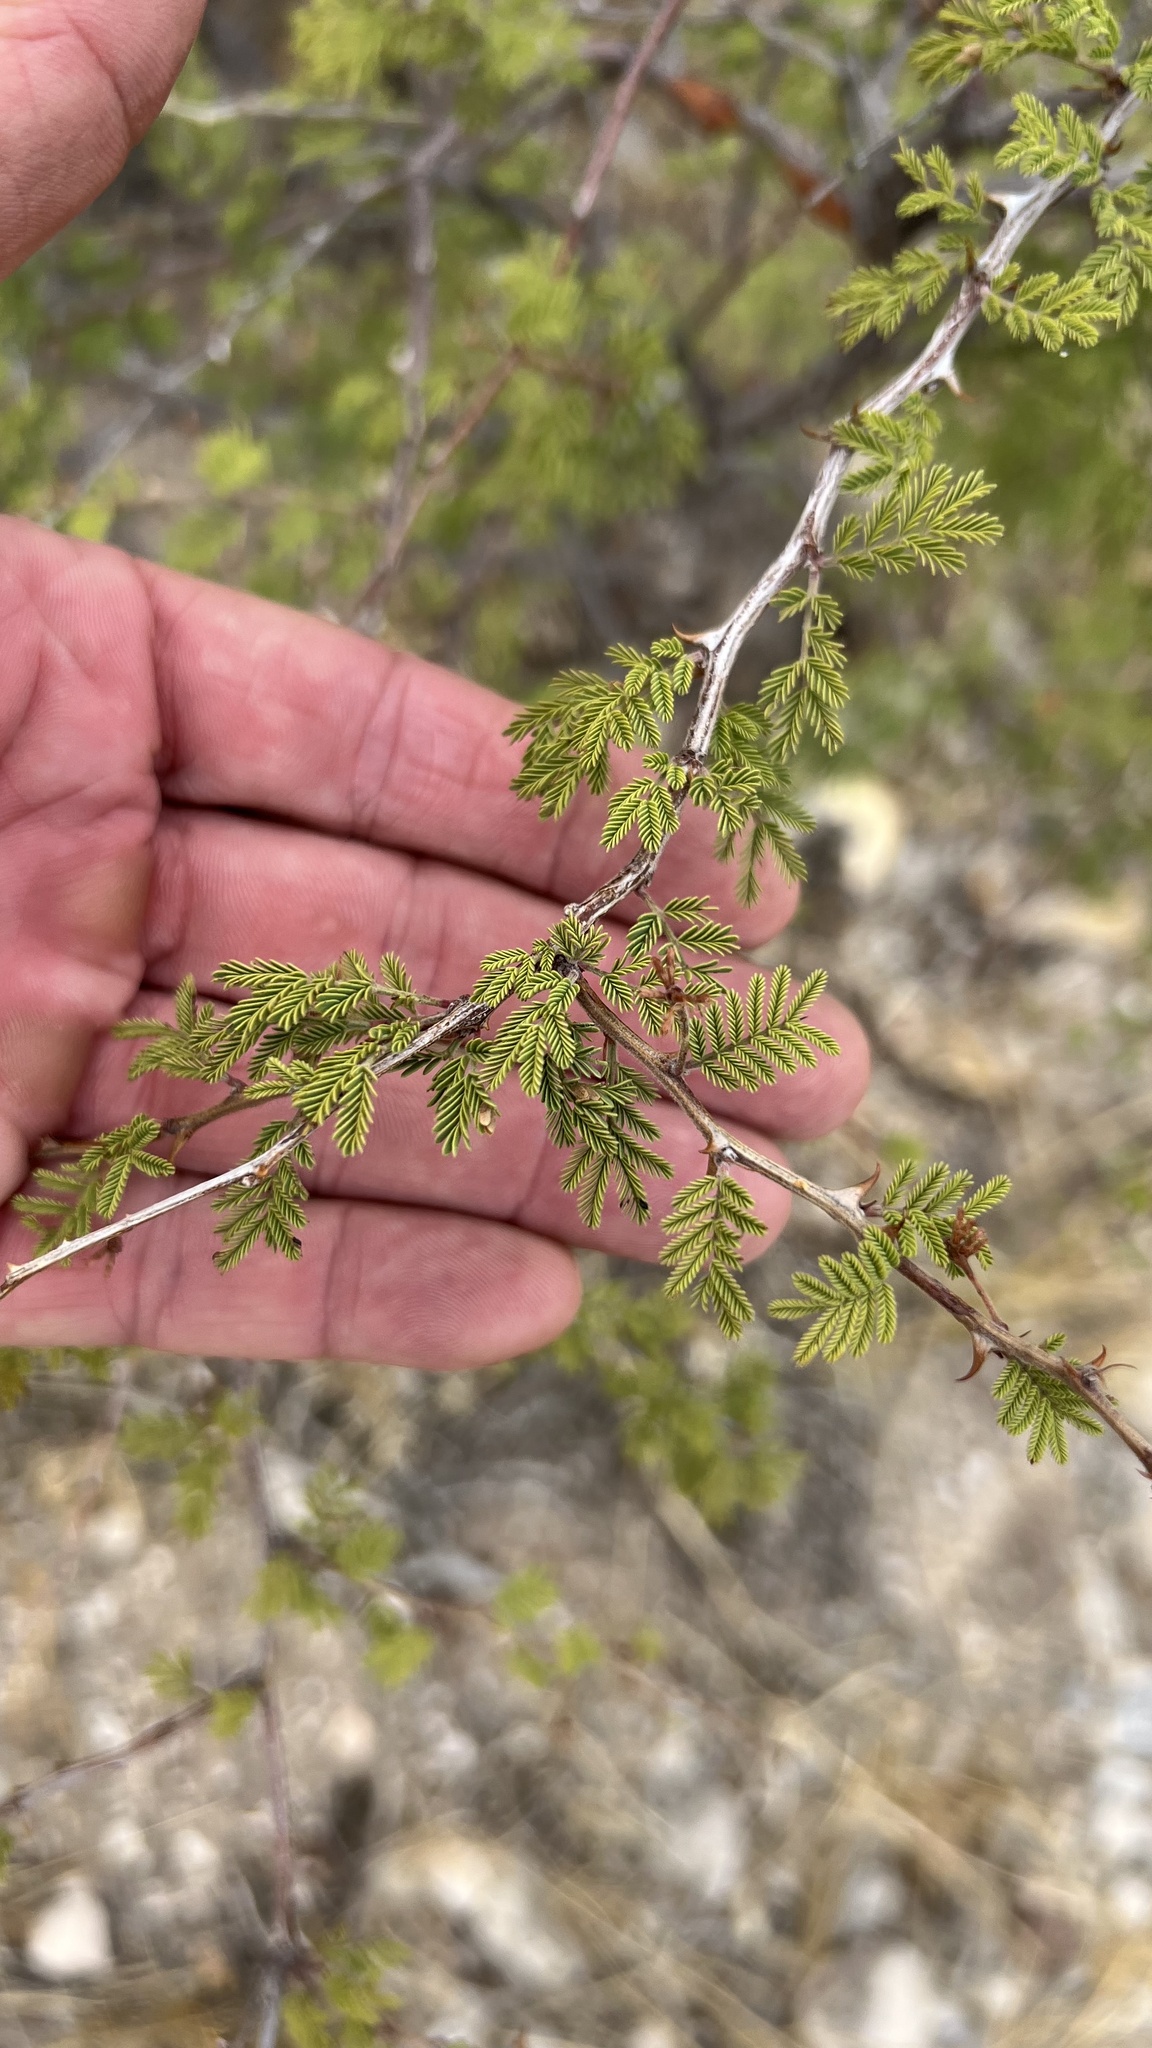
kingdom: Plantae
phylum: Tracheophyta
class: Magnoliopsida
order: Fabales
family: Fabaceae
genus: Mimosa
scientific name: Mimosa aculeaticarpa
